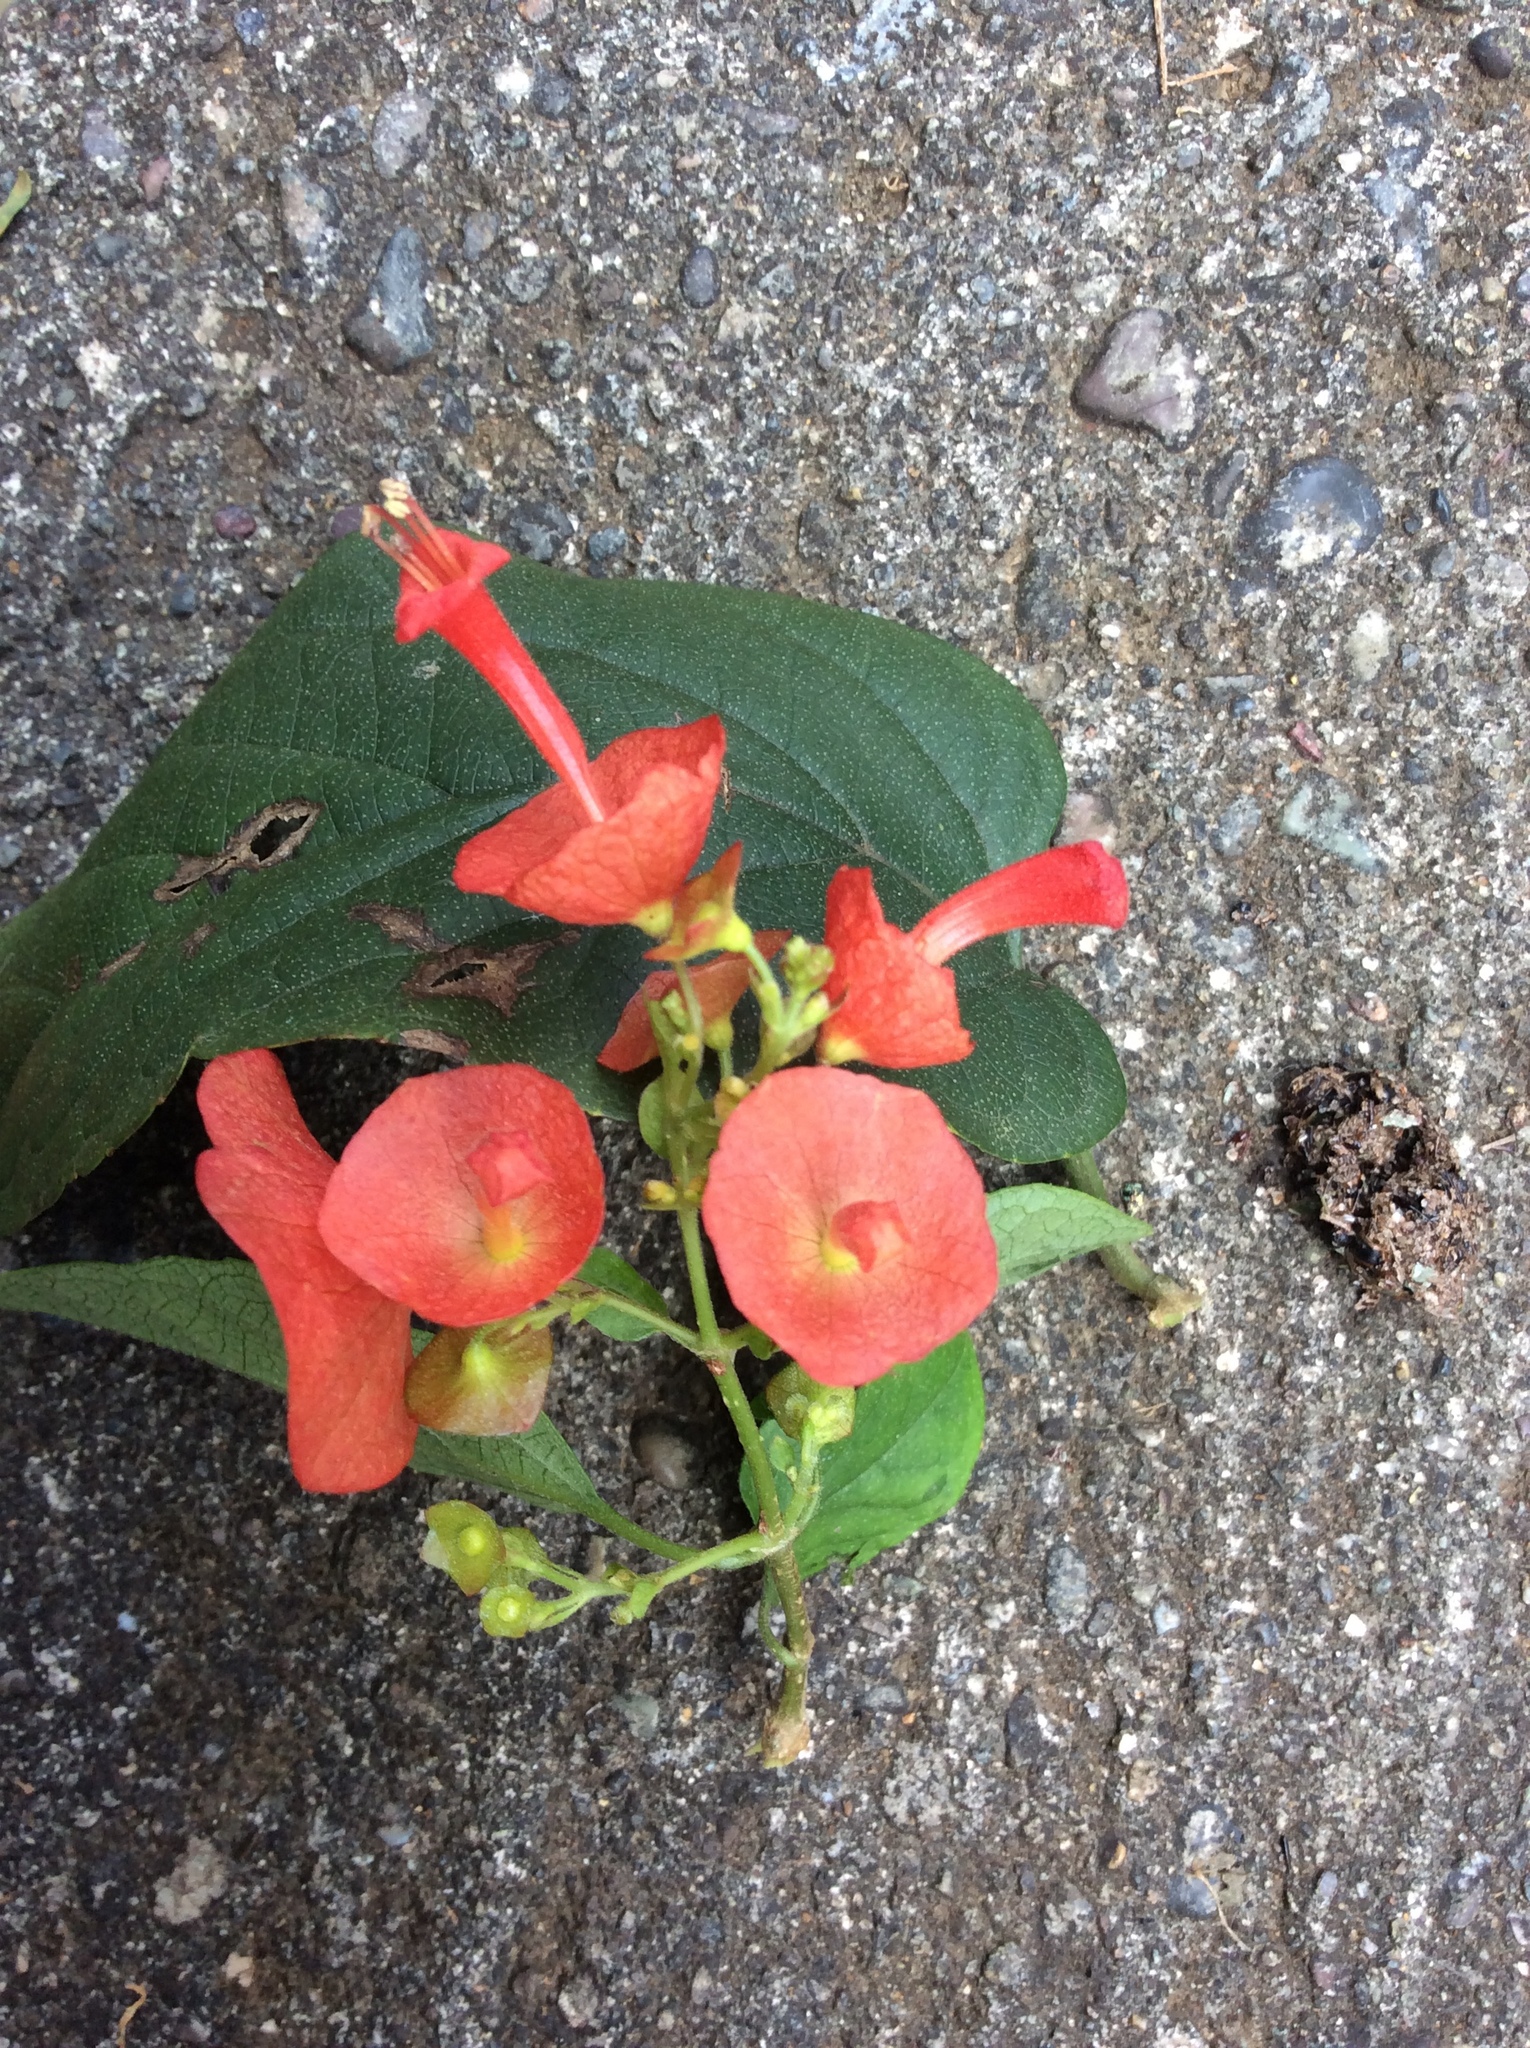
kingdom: Plantae
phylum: Tracheophyta
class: Magnoliopsida
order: Lamiales
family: Lamiaceae
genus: Holmskioldia
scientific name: Holmskioldia sanguinea
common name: Chinese hatplant
